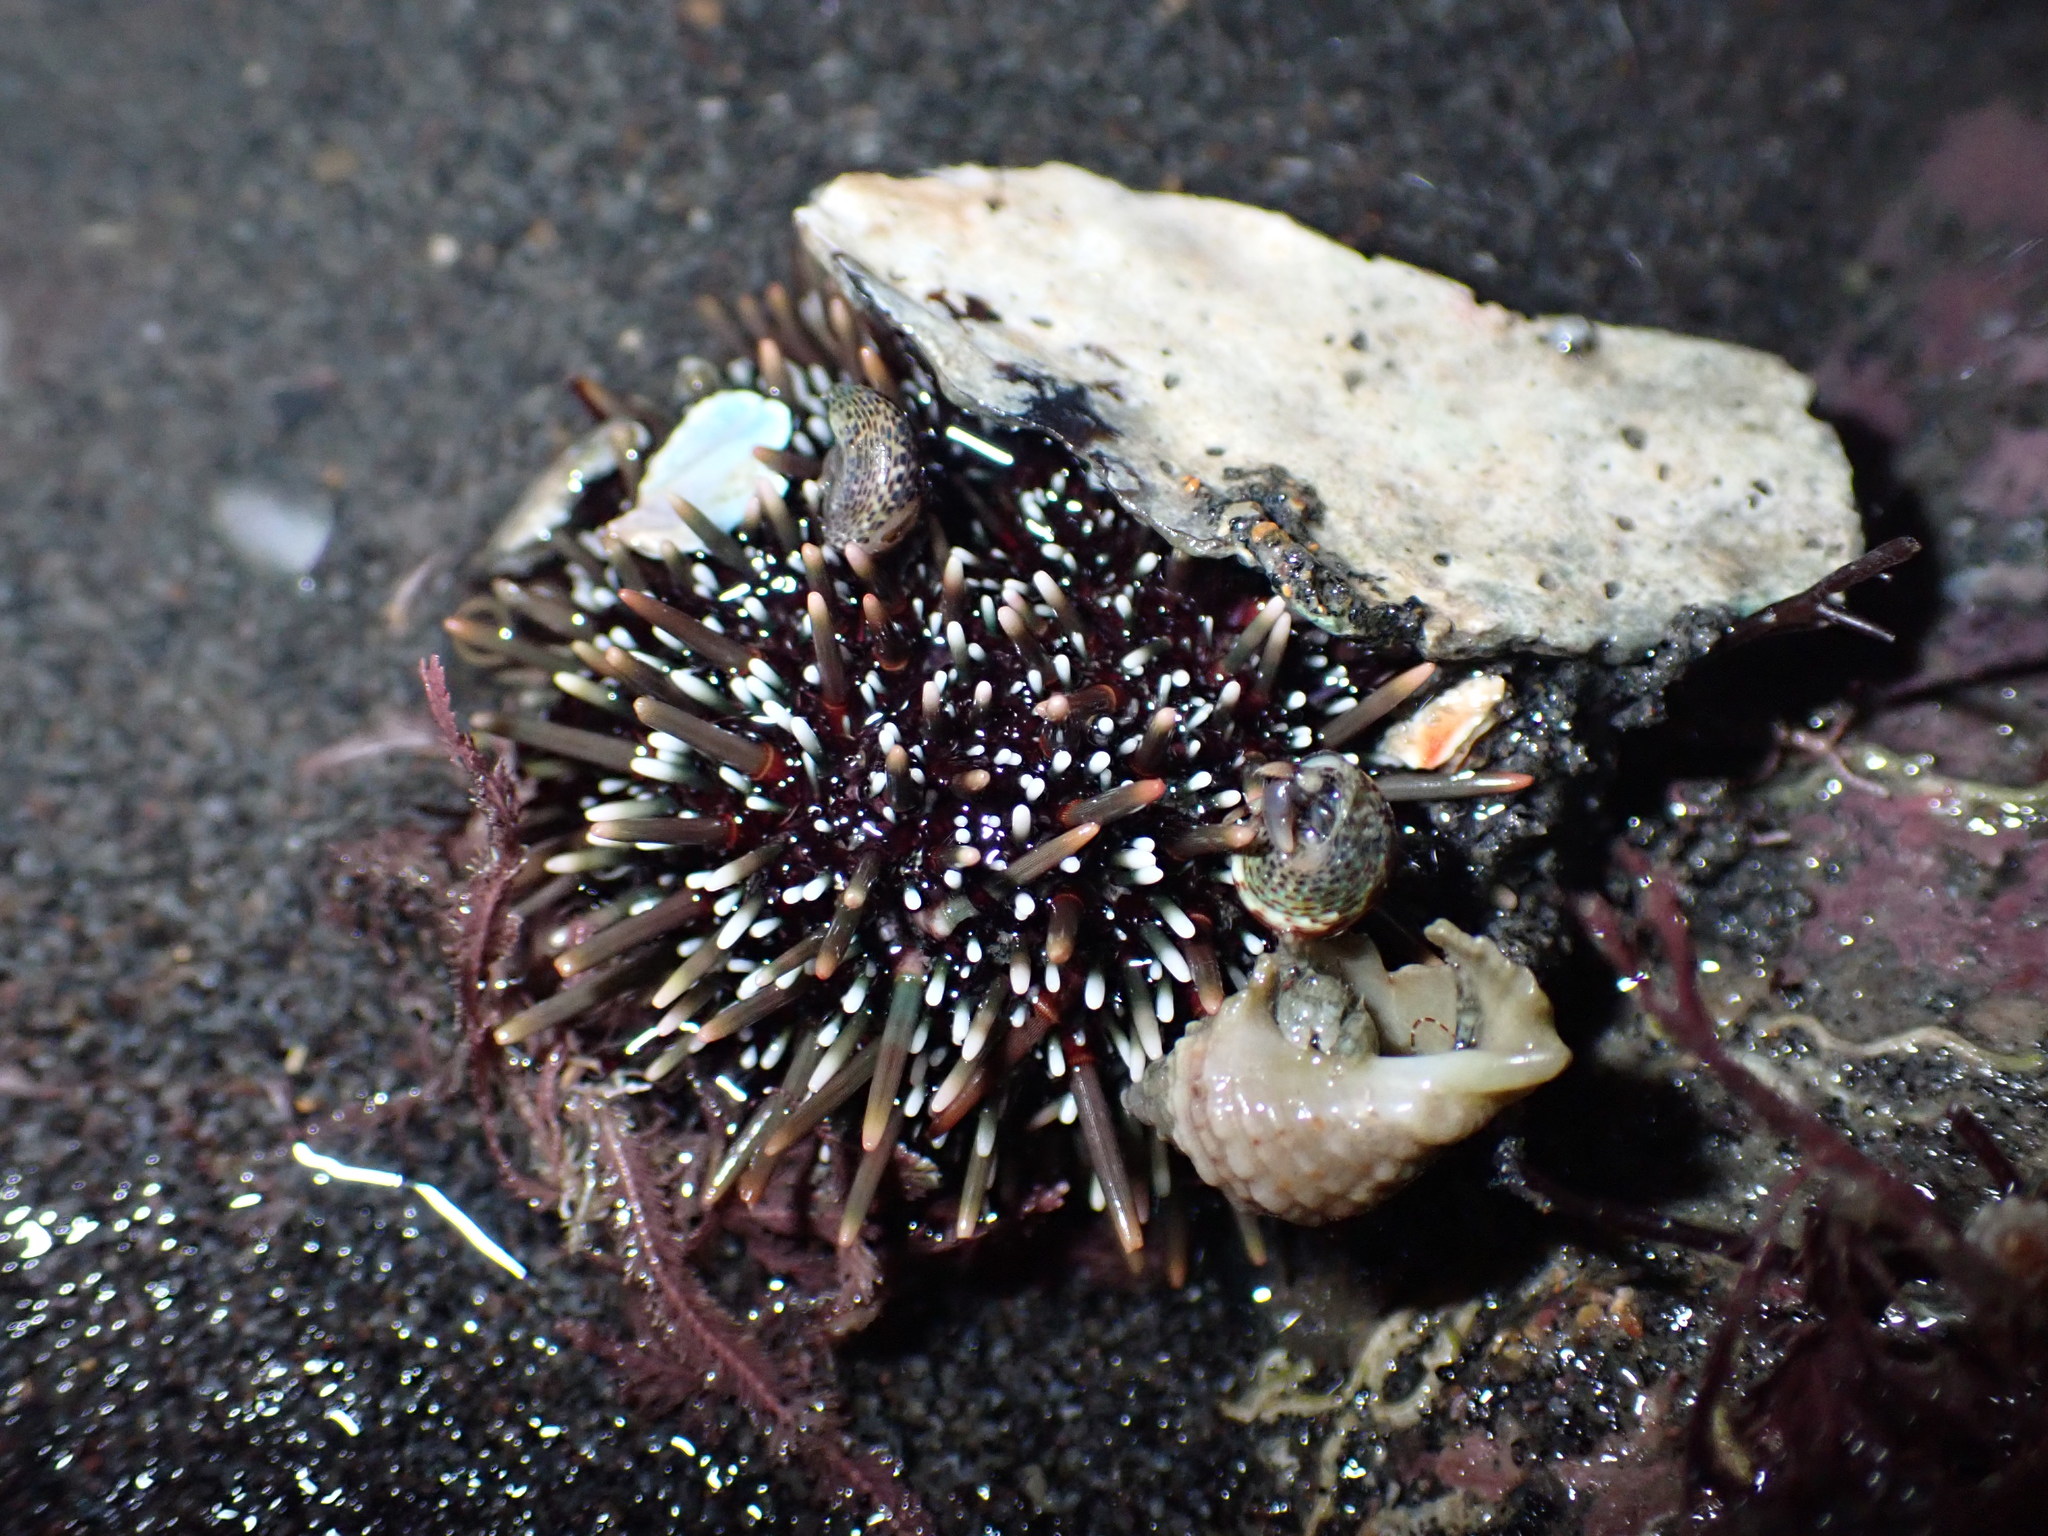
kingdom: Animalia
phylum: Echinodermata
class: Echinoidea
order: Camarodonta
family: Echinometridae
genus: Evechinus
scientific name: Evechinus chloroticus
